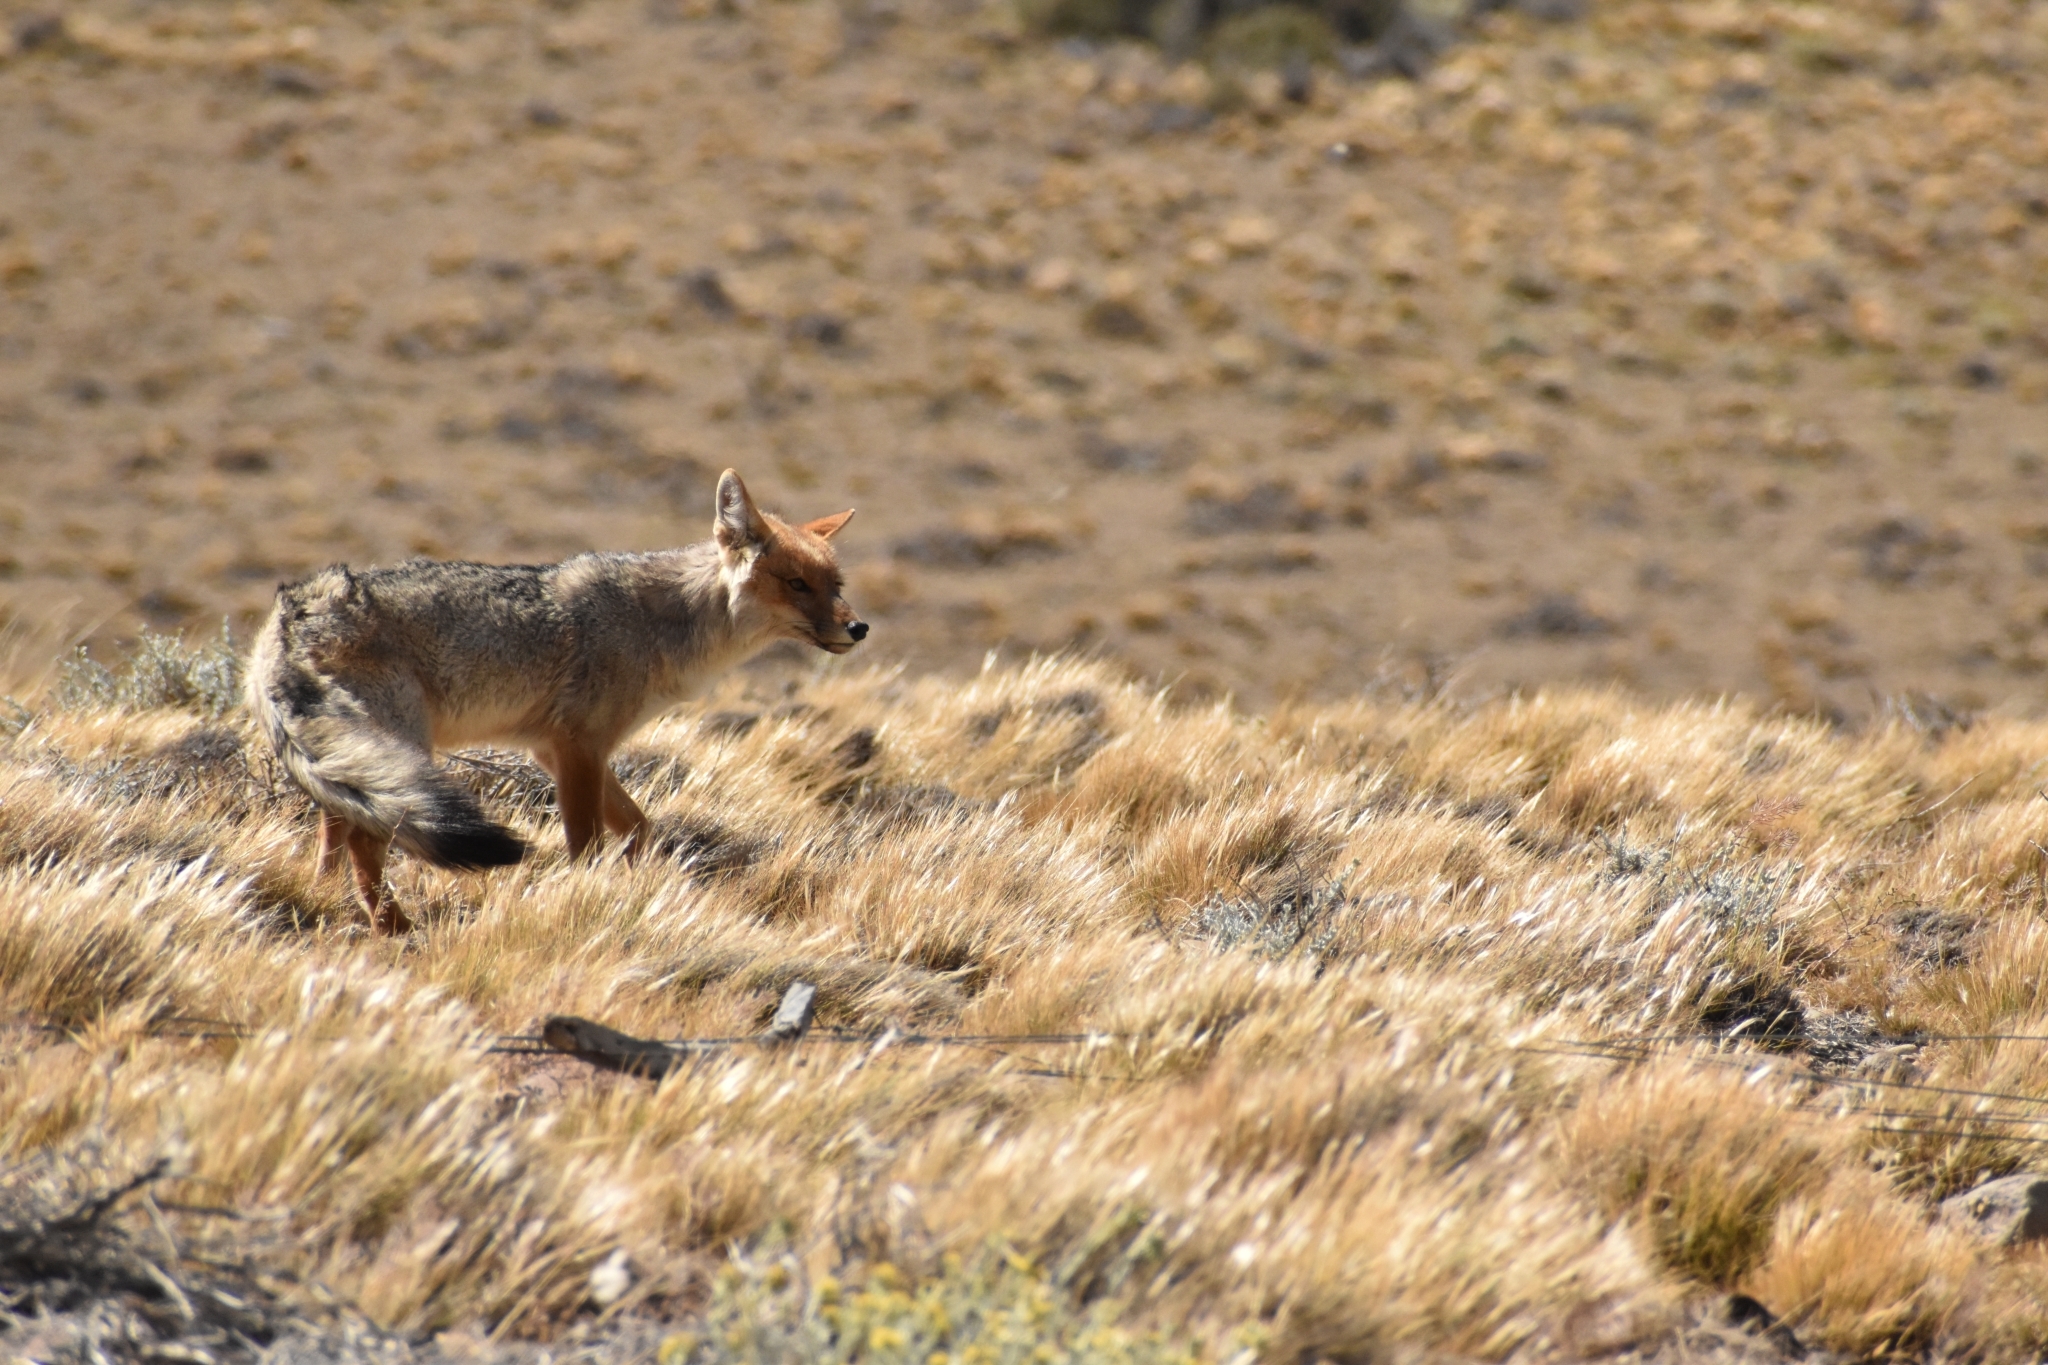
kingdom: Animalia
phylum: Chordata
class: Mammalia
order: Carnivora
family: Canidae
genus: Lycalopex
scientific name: Lycalopex culpaeus
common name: Culpeo
